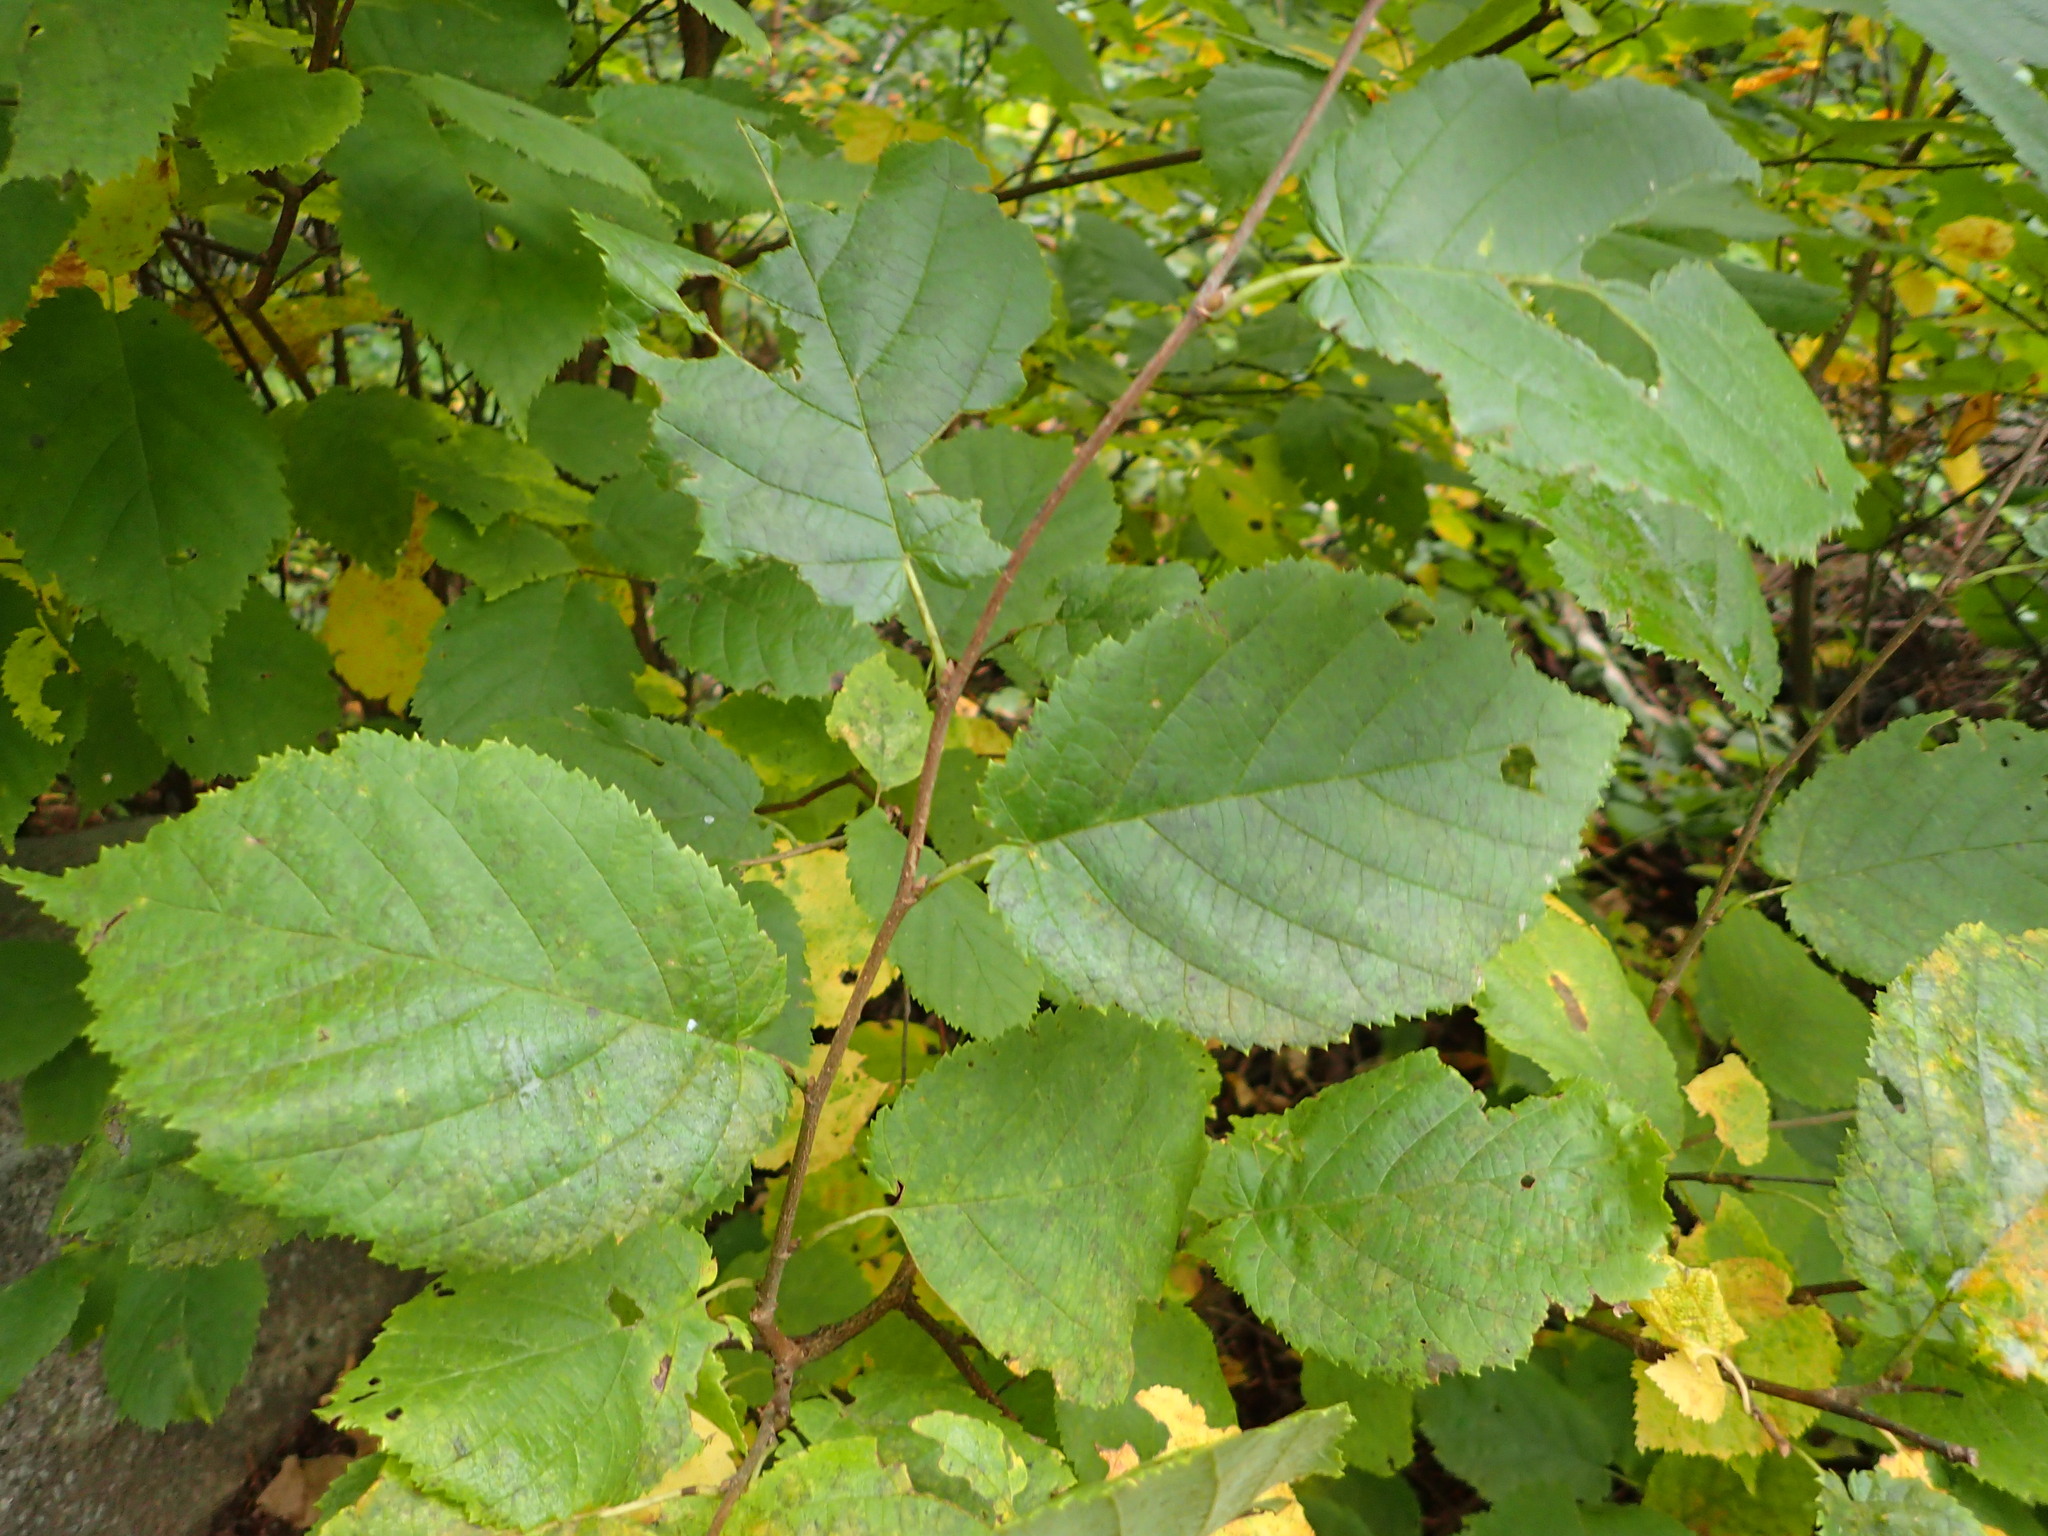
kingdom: Plantae
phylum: Tracheophyta
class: Magnoliopsida
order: Fagales
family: Betulaceae
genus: Corylus
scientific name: Corylus cornuta
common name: Beaked hazel
